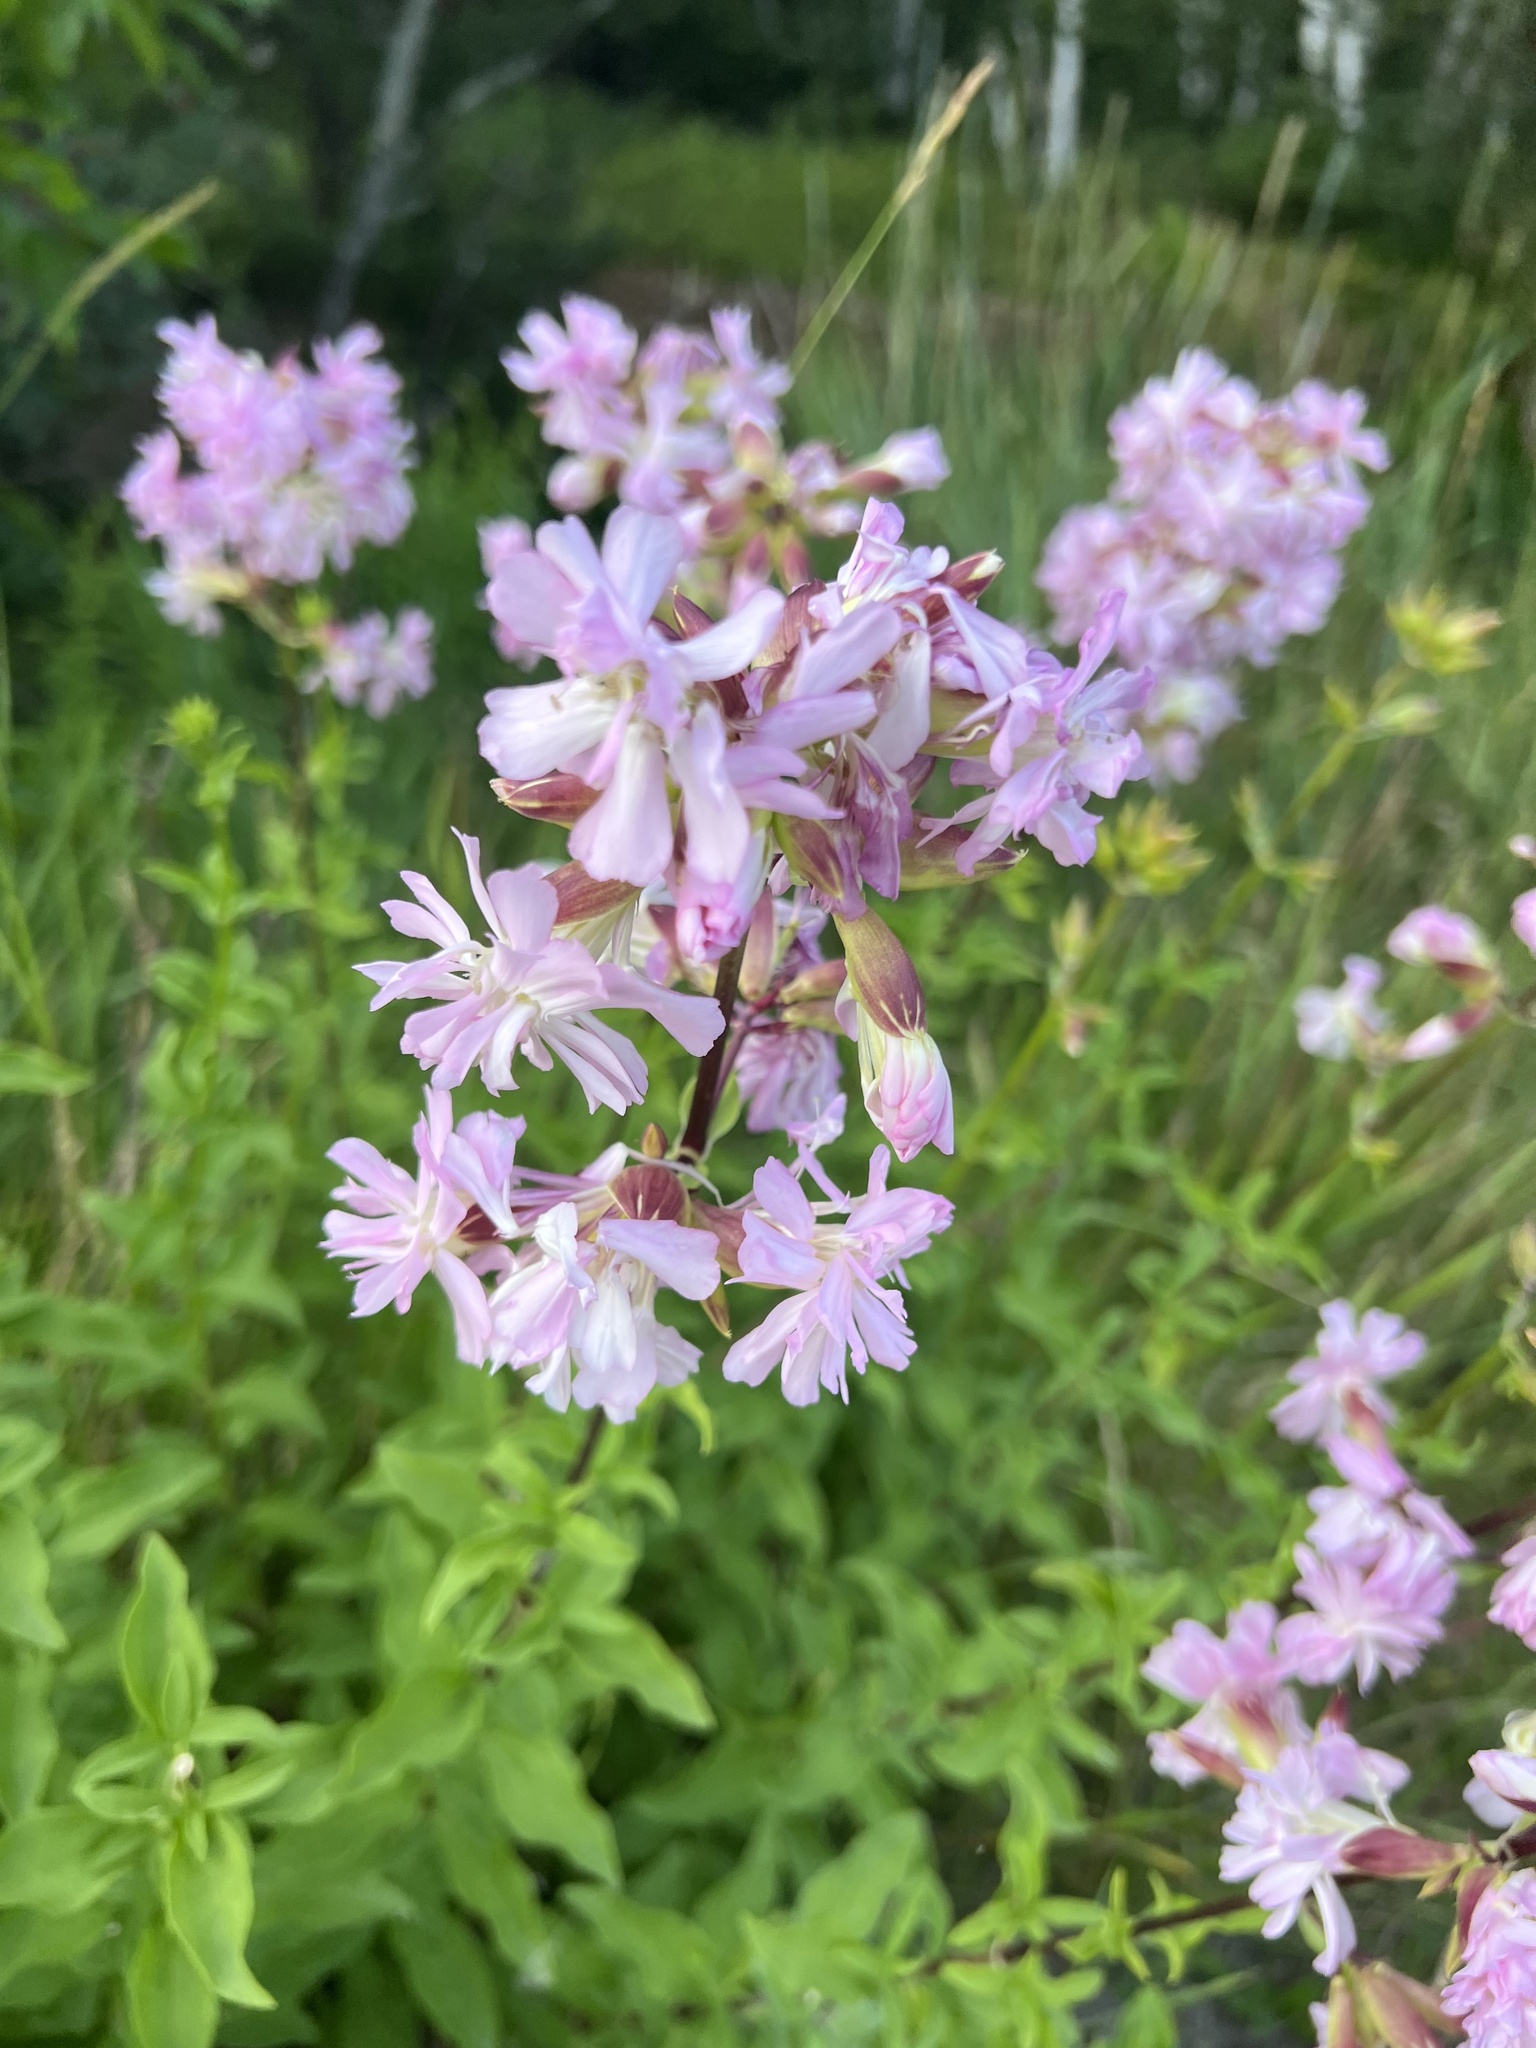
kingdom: Plantae
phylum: Tracheophyta
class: Magnoliopsida
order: Caryophyllales
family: Caryophyllaceae
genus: Saponaria
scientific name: Saponaria officinalis
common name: Soapwort
